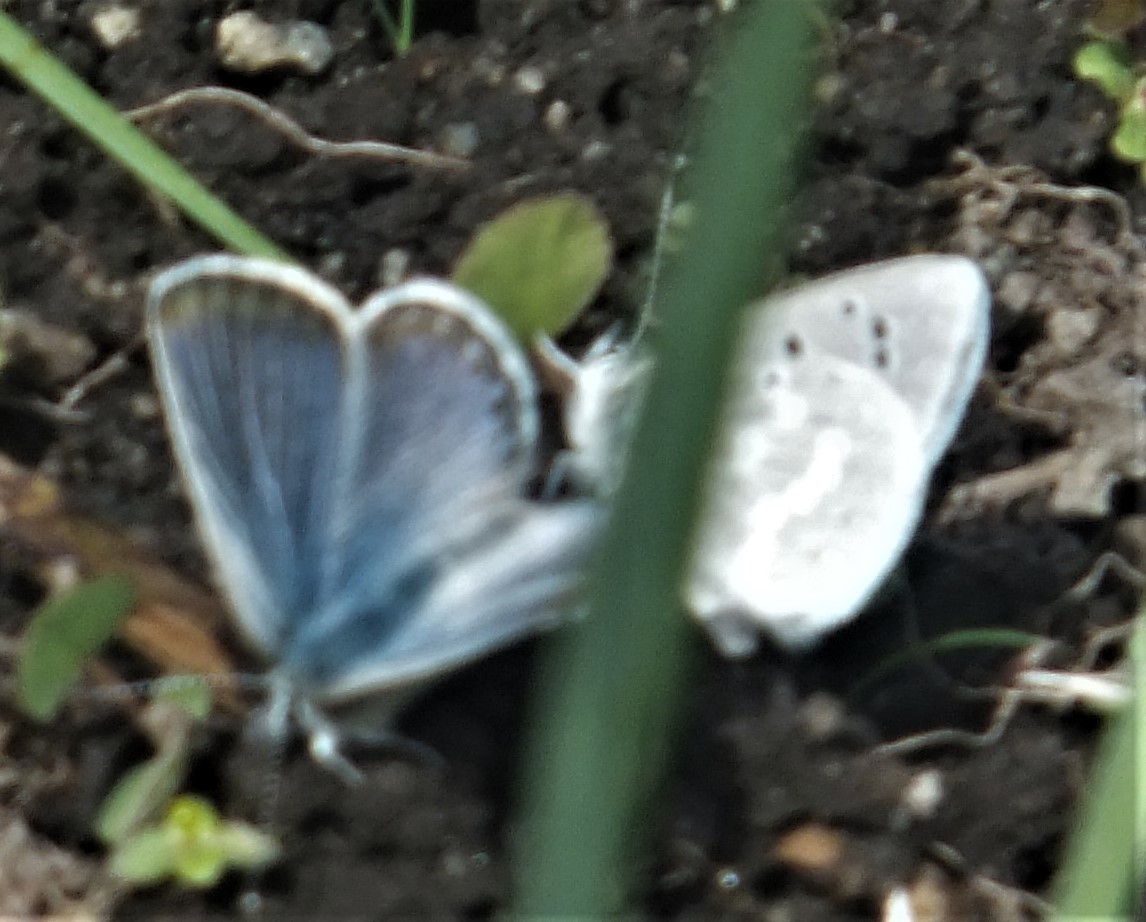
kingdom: Animalia
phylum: Arthropoda
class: Insecta
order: Lepidoptera
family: Lycaenidae
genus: Icaricia
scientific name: Icaricia icarioides
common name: Boisduval's blue
